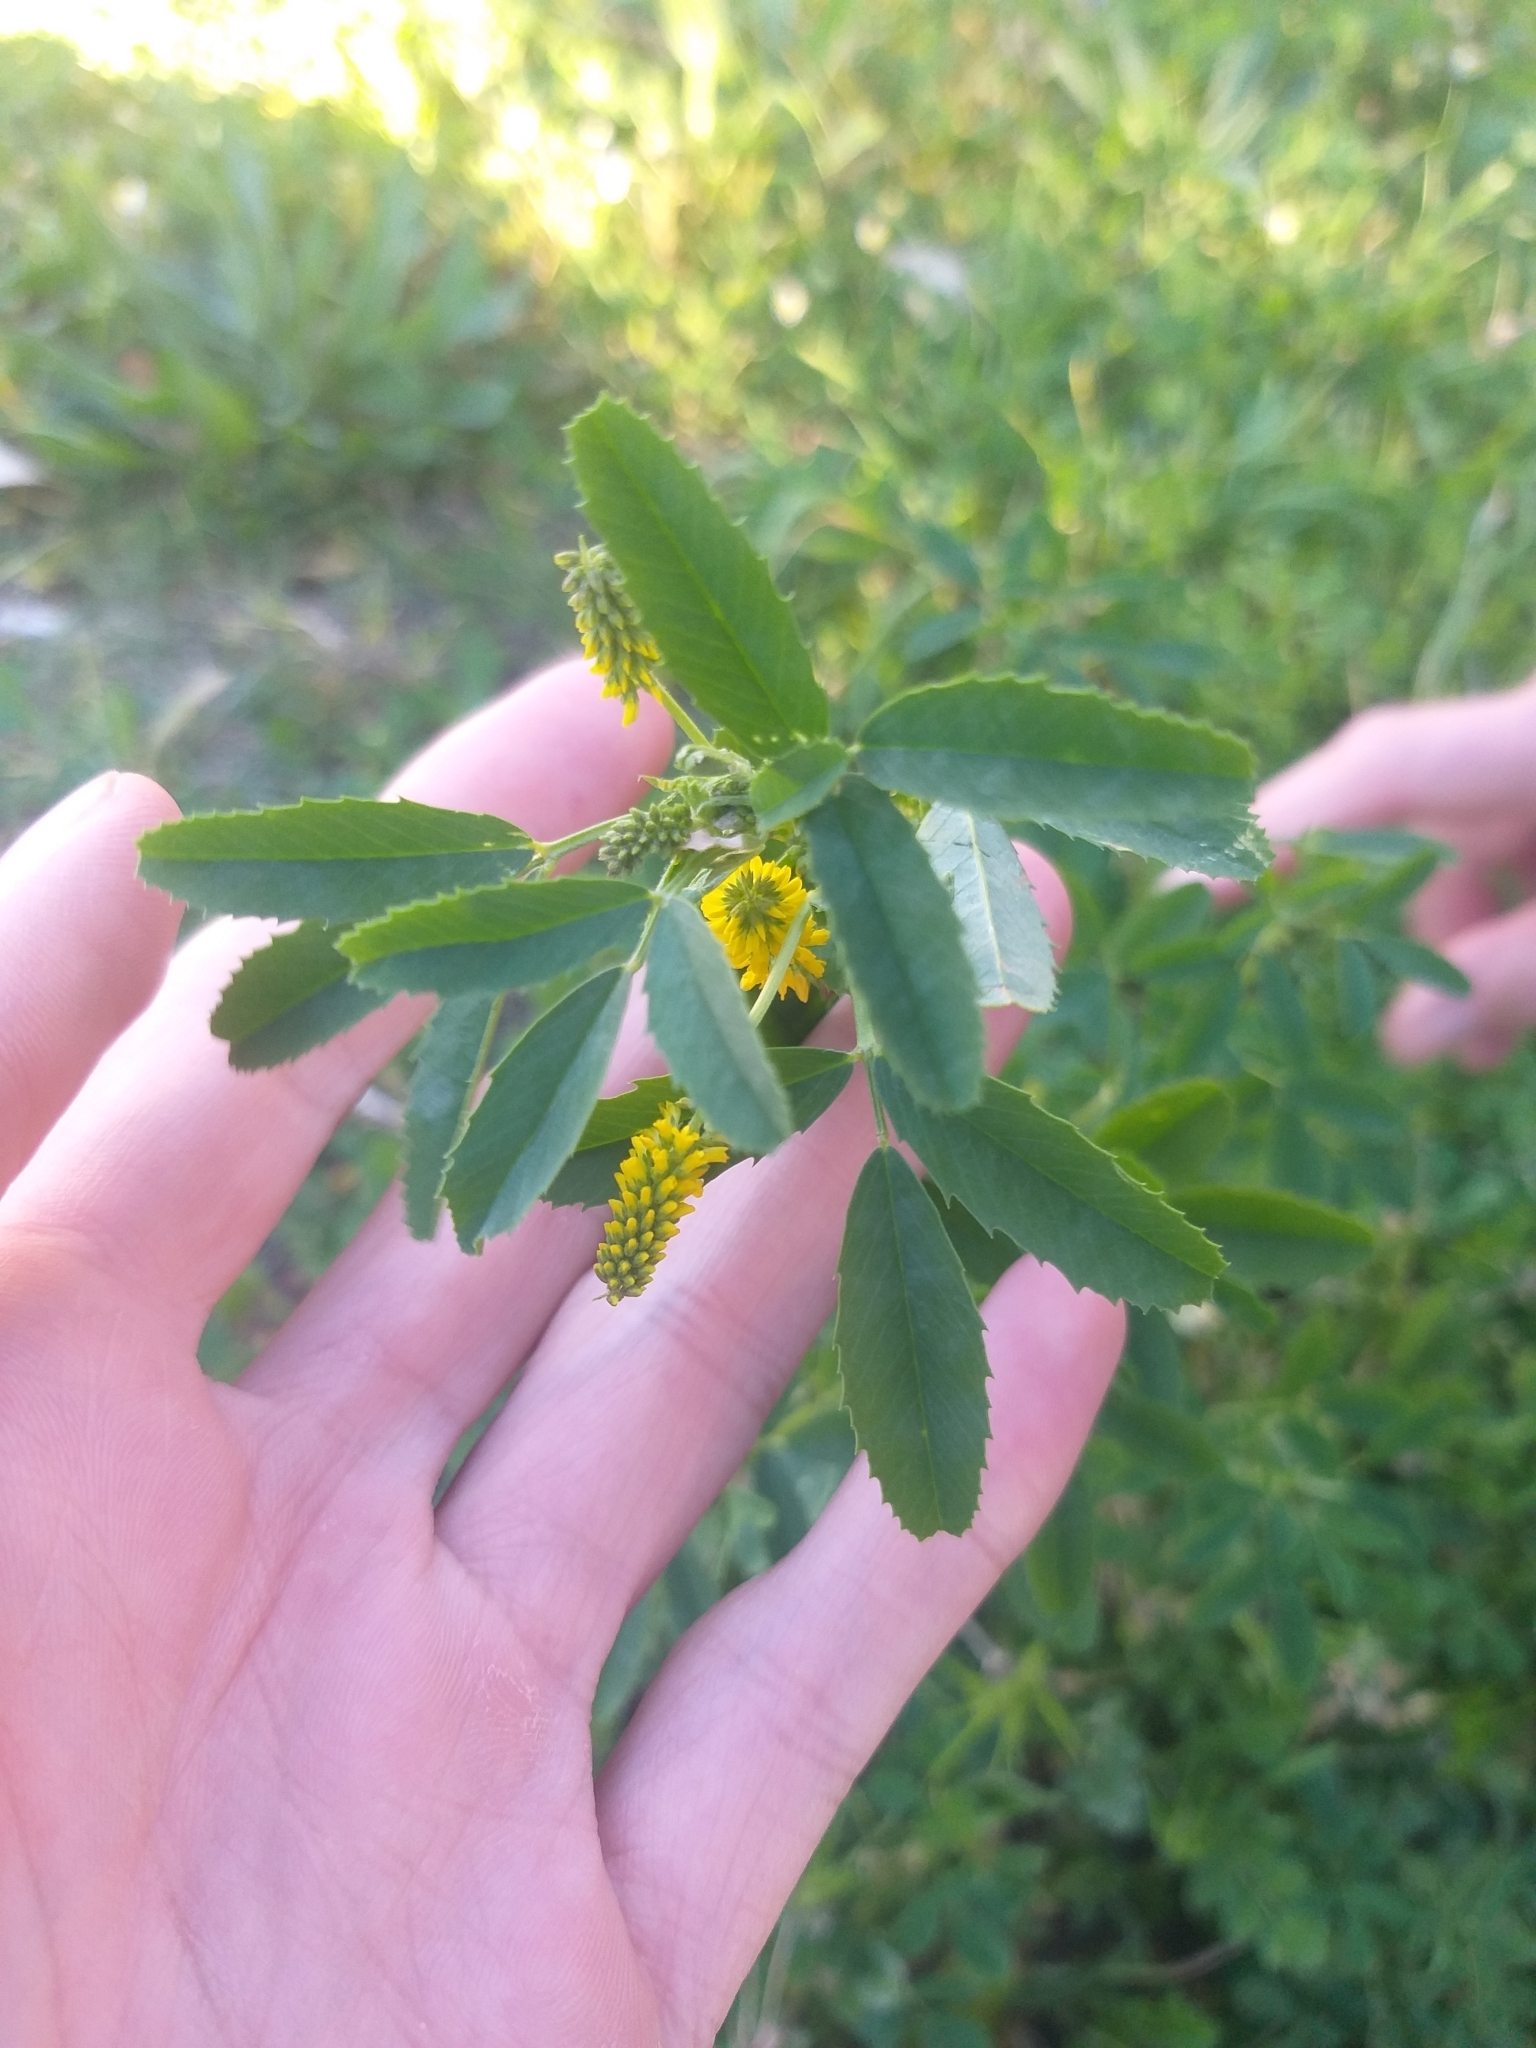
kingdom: Plantae
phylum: Tracheophyta
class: Magnoliopsida
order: Fabales
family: Fabaceae
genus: Melilotus
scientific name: Melilotus indicus
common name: Small melilot
